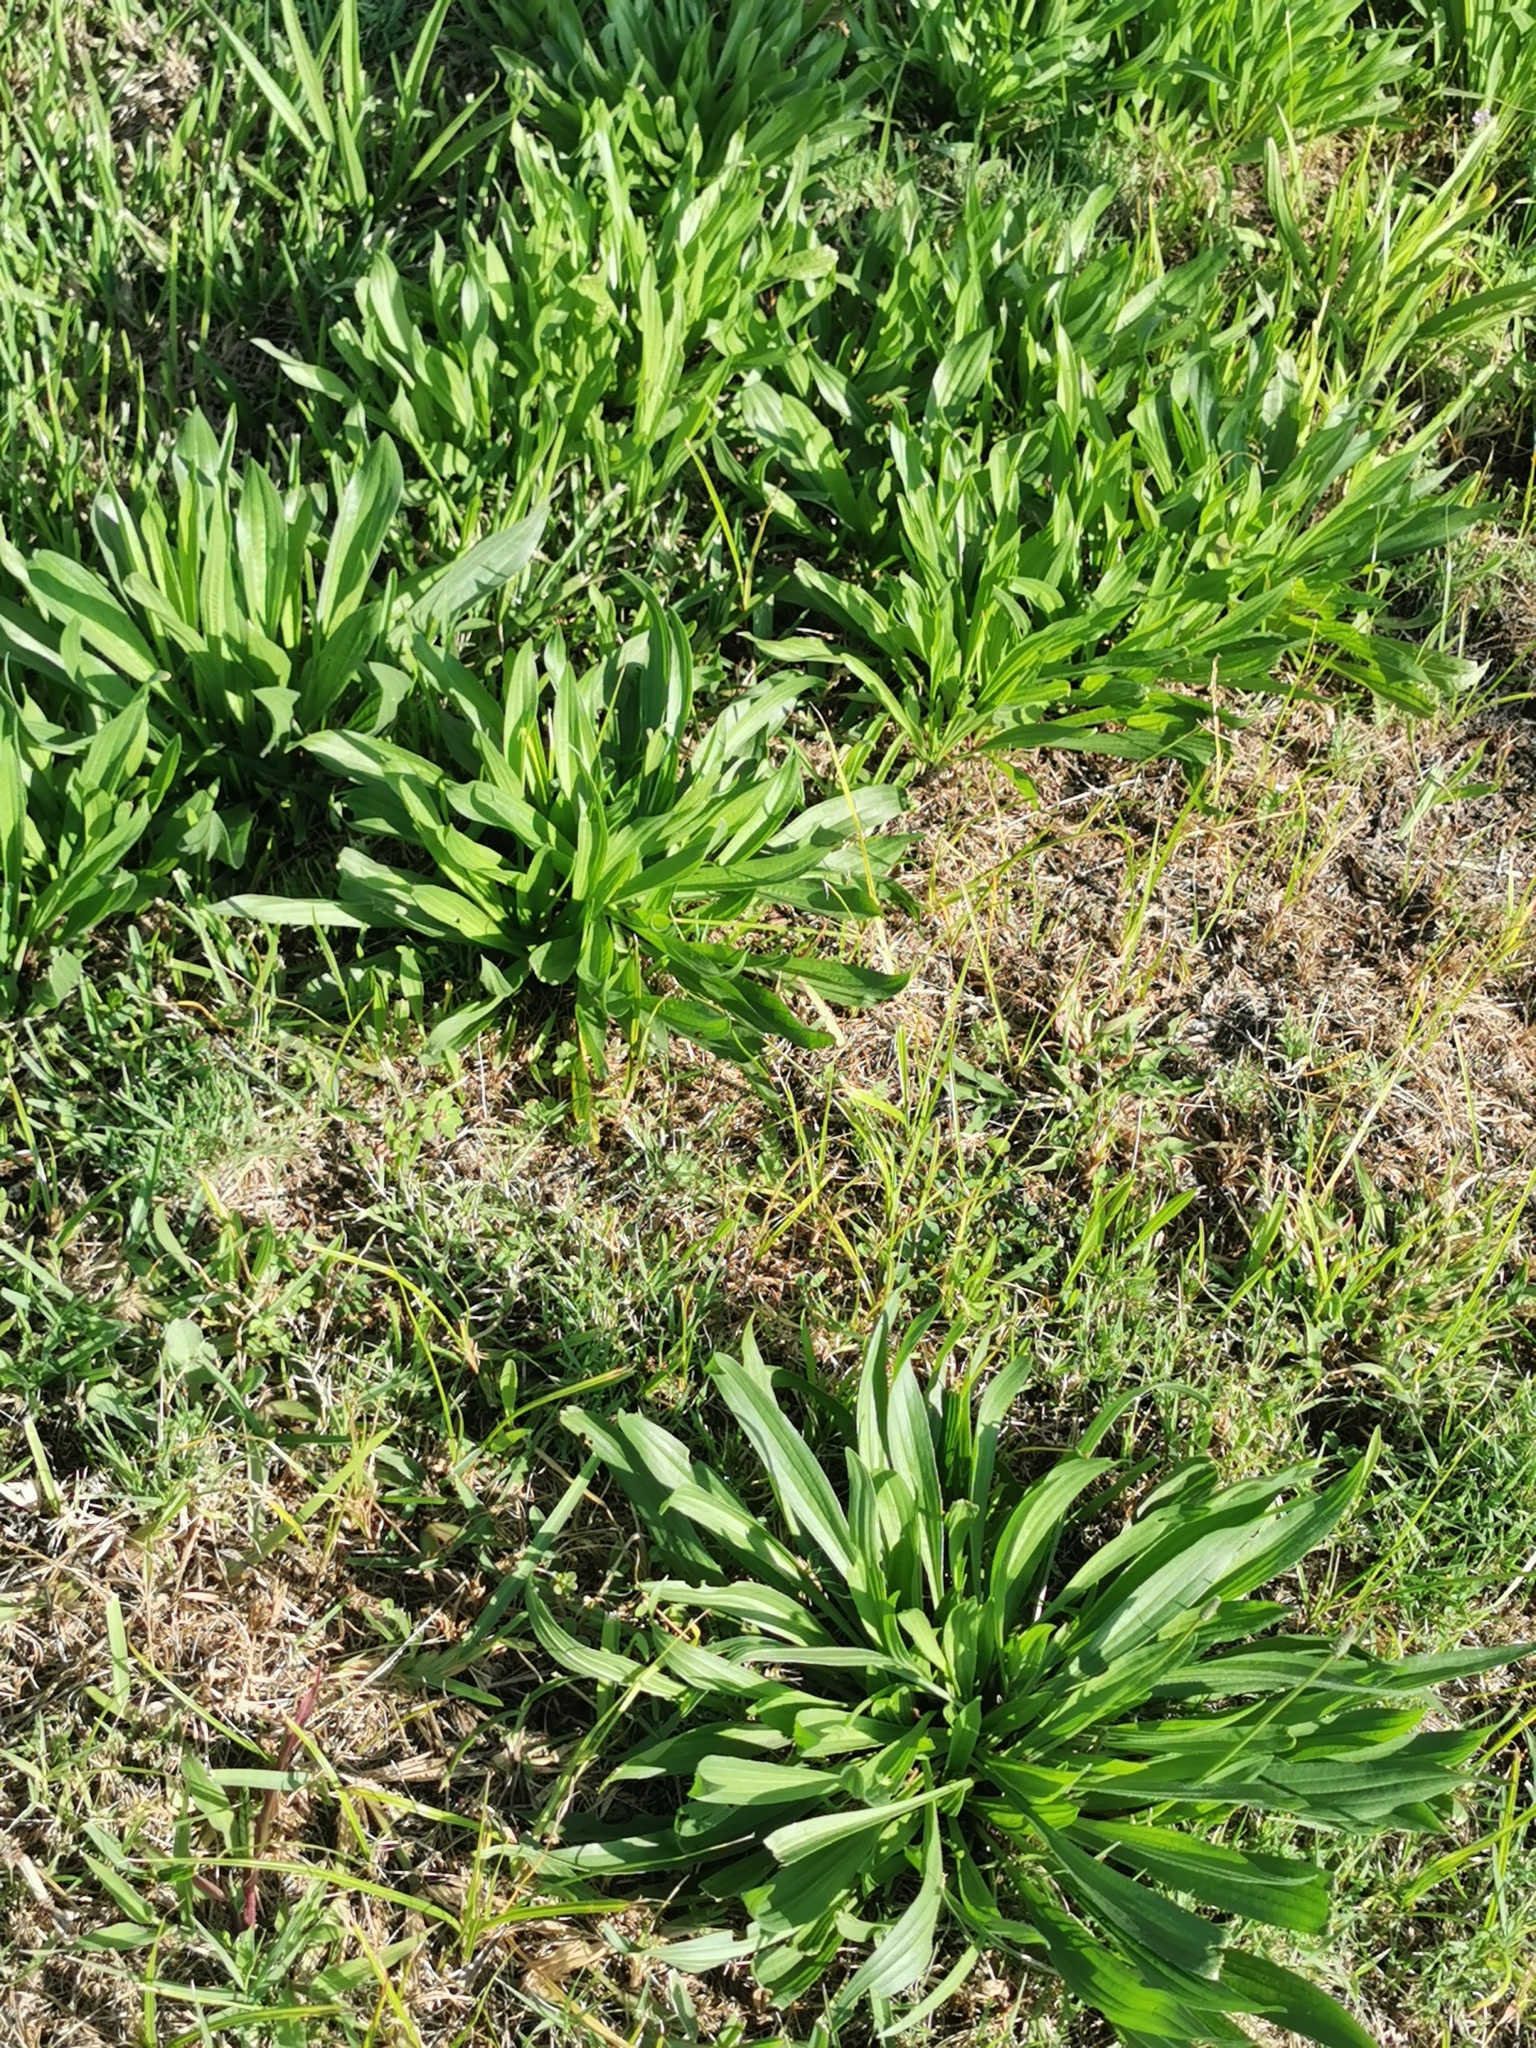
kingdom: Plantae
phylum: Tracheophyta
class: Magnoliopsida
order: Lamiales
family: Plantaginaceae
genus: Plantago
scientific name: Plantago lanceolata
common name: Ribwort plantain
